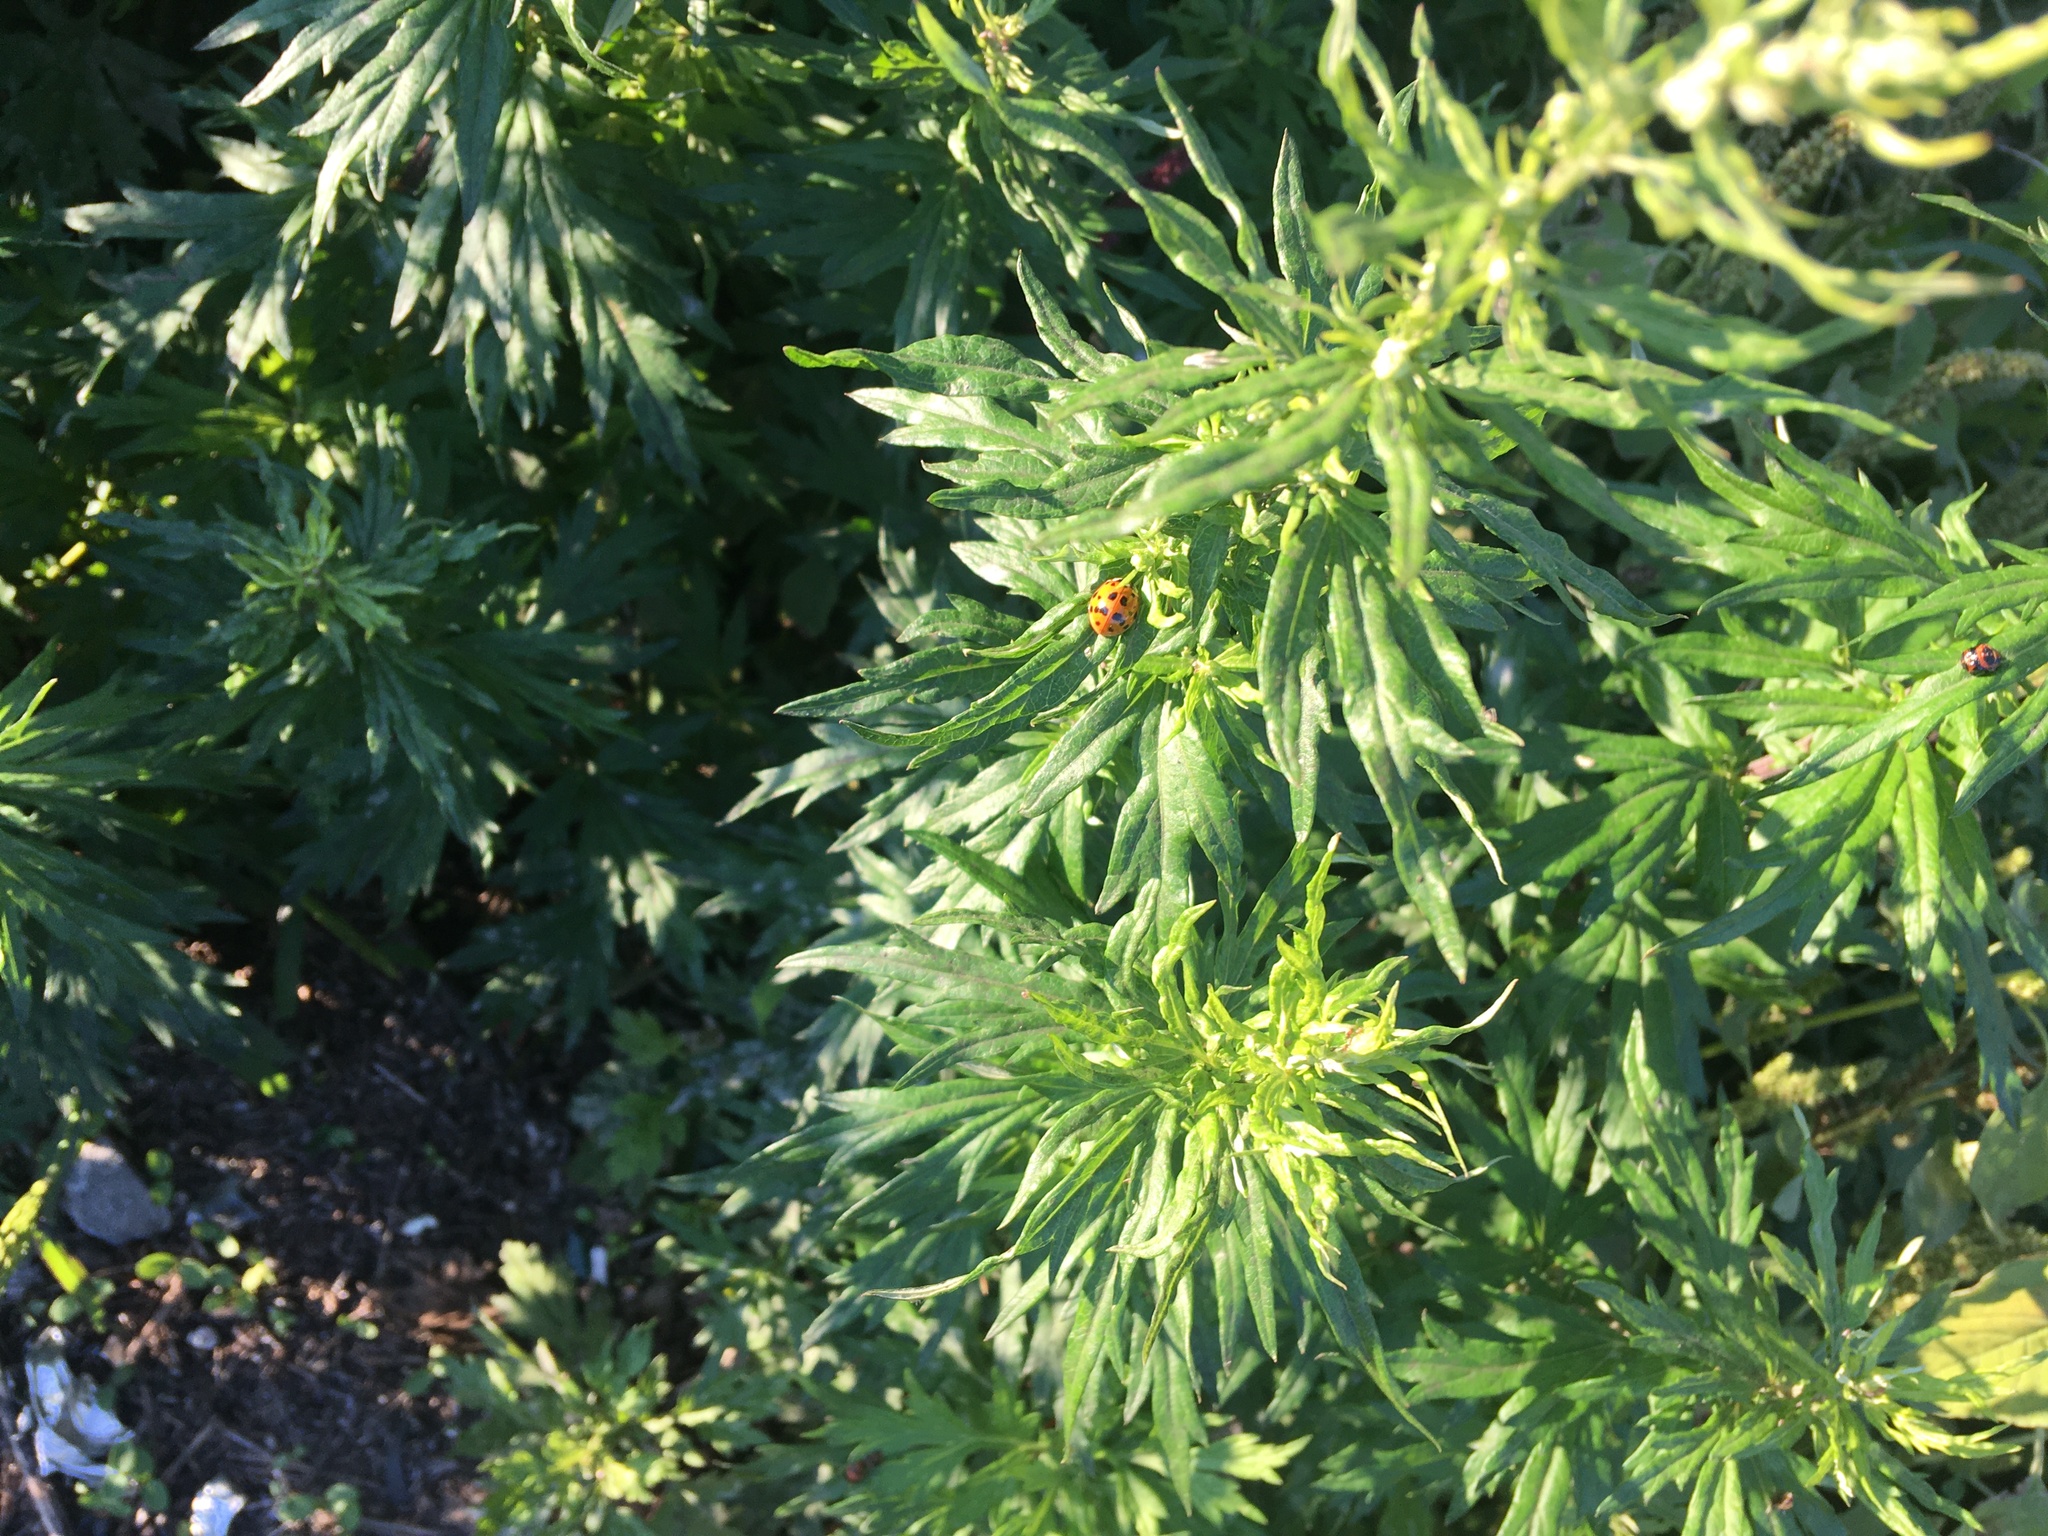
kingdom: Plantae
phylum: Tracheophyta
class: Magnoliopsida
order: Asterales
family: Asteraceae
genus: Artemisia
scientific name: Artemisia vulgaris
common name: Mugwort
